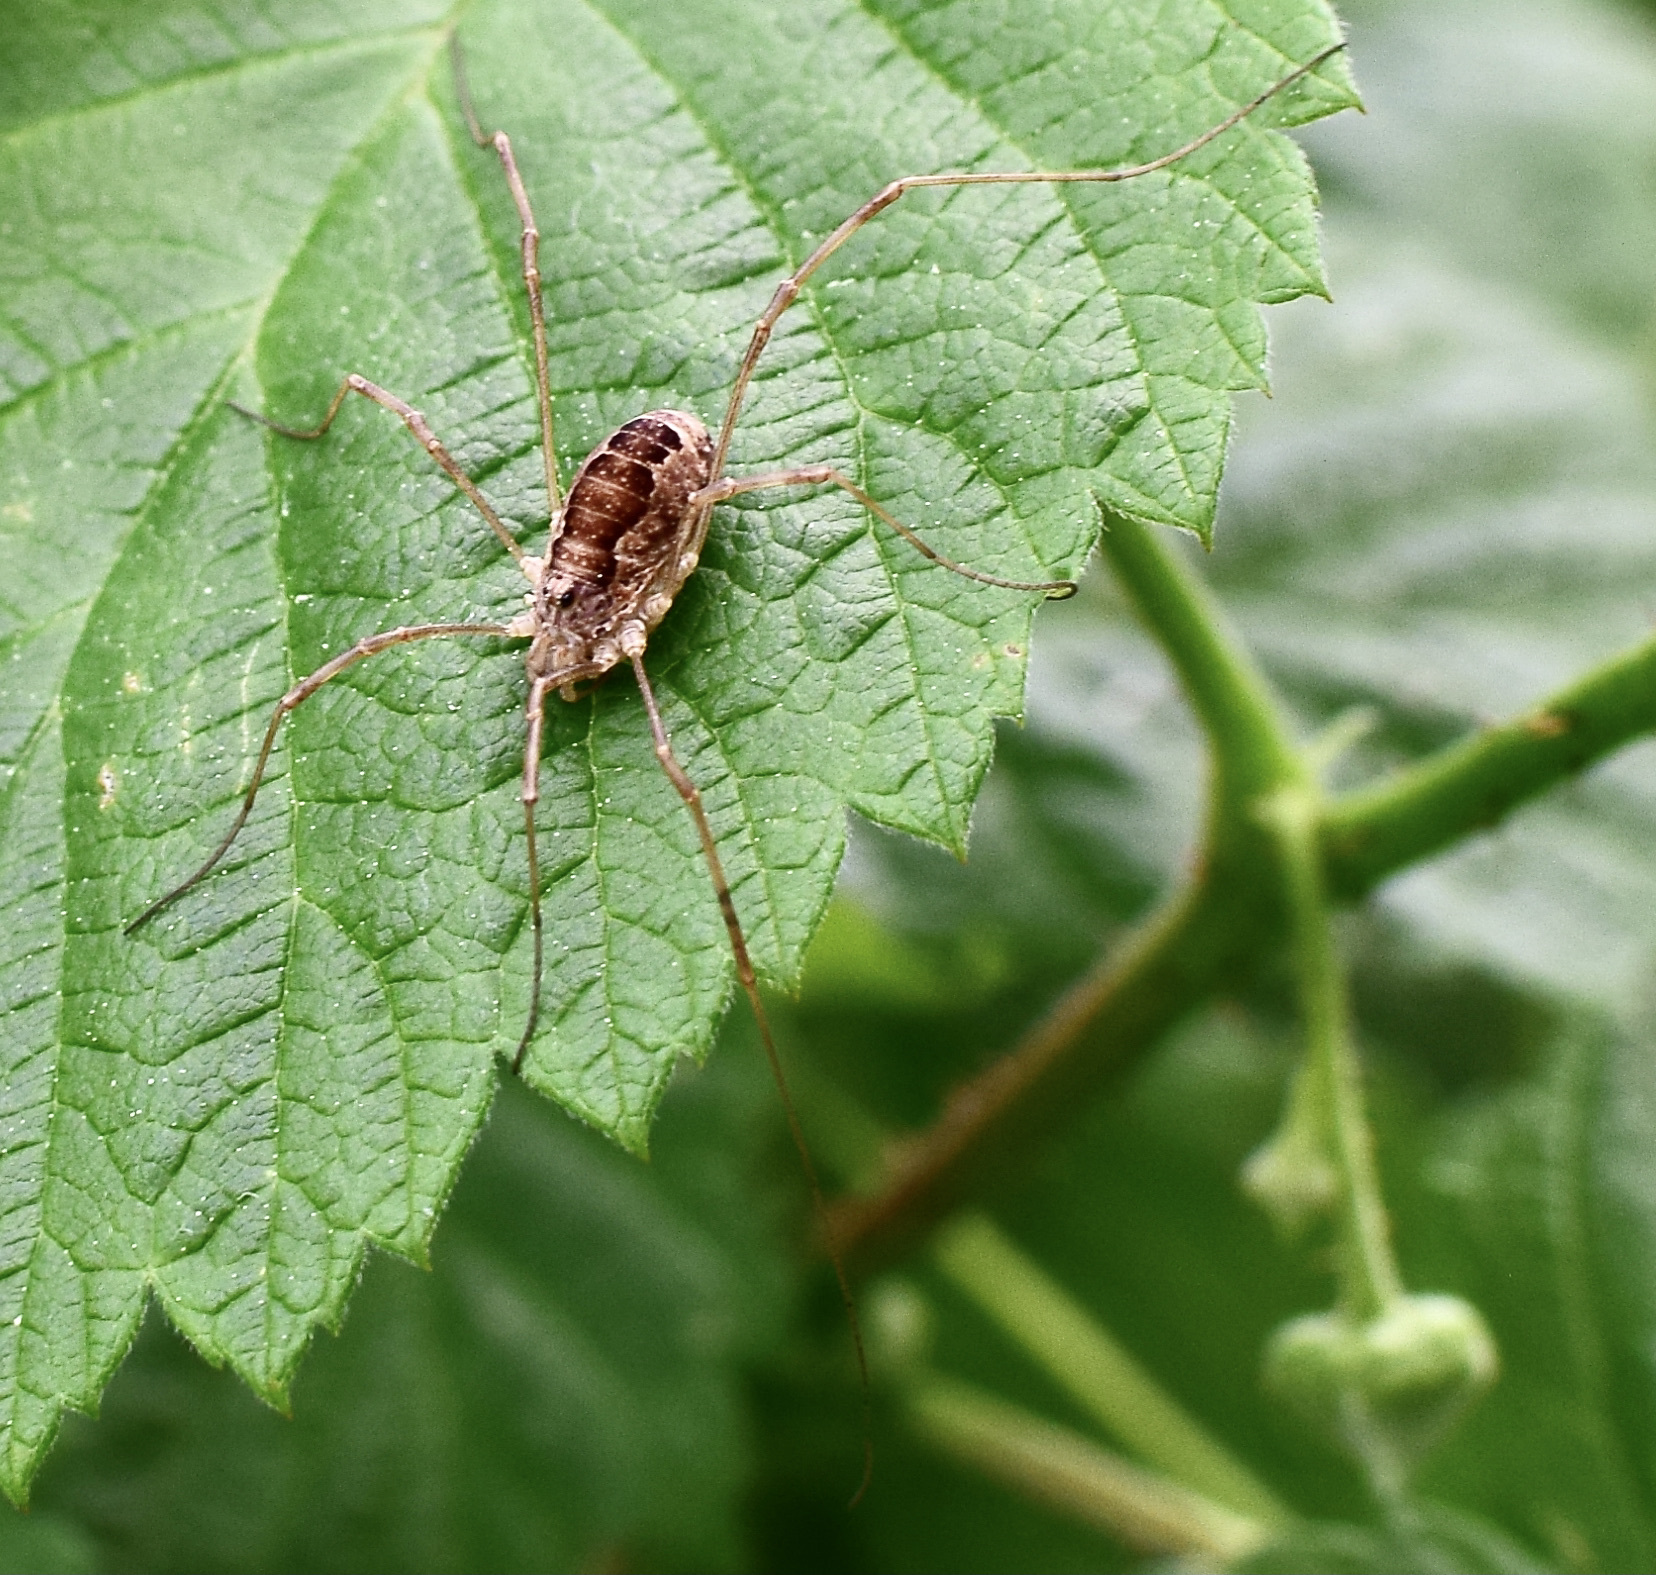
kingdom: Animalia
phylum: Arthropoda
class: Arachnida
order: Opiliones
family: Phalangiidae
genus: Rilaena
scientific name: Rilaena triangularis
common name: Spring harvestman
